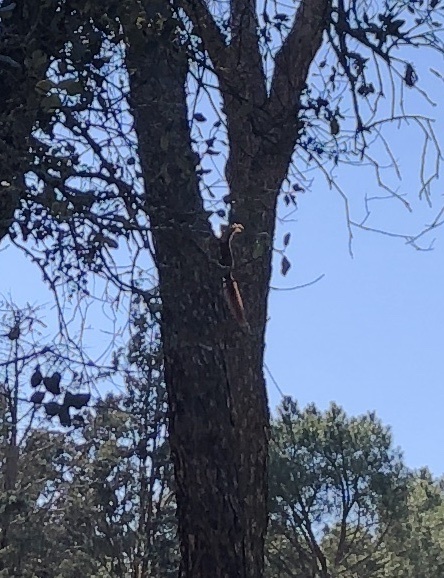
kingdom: Animalia
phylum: Chordata
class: Mammalia
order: Rodentia
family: Sciuridae
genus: Sciurus
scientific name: Sciurus vulgaris
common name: Eurasian red squirrel
